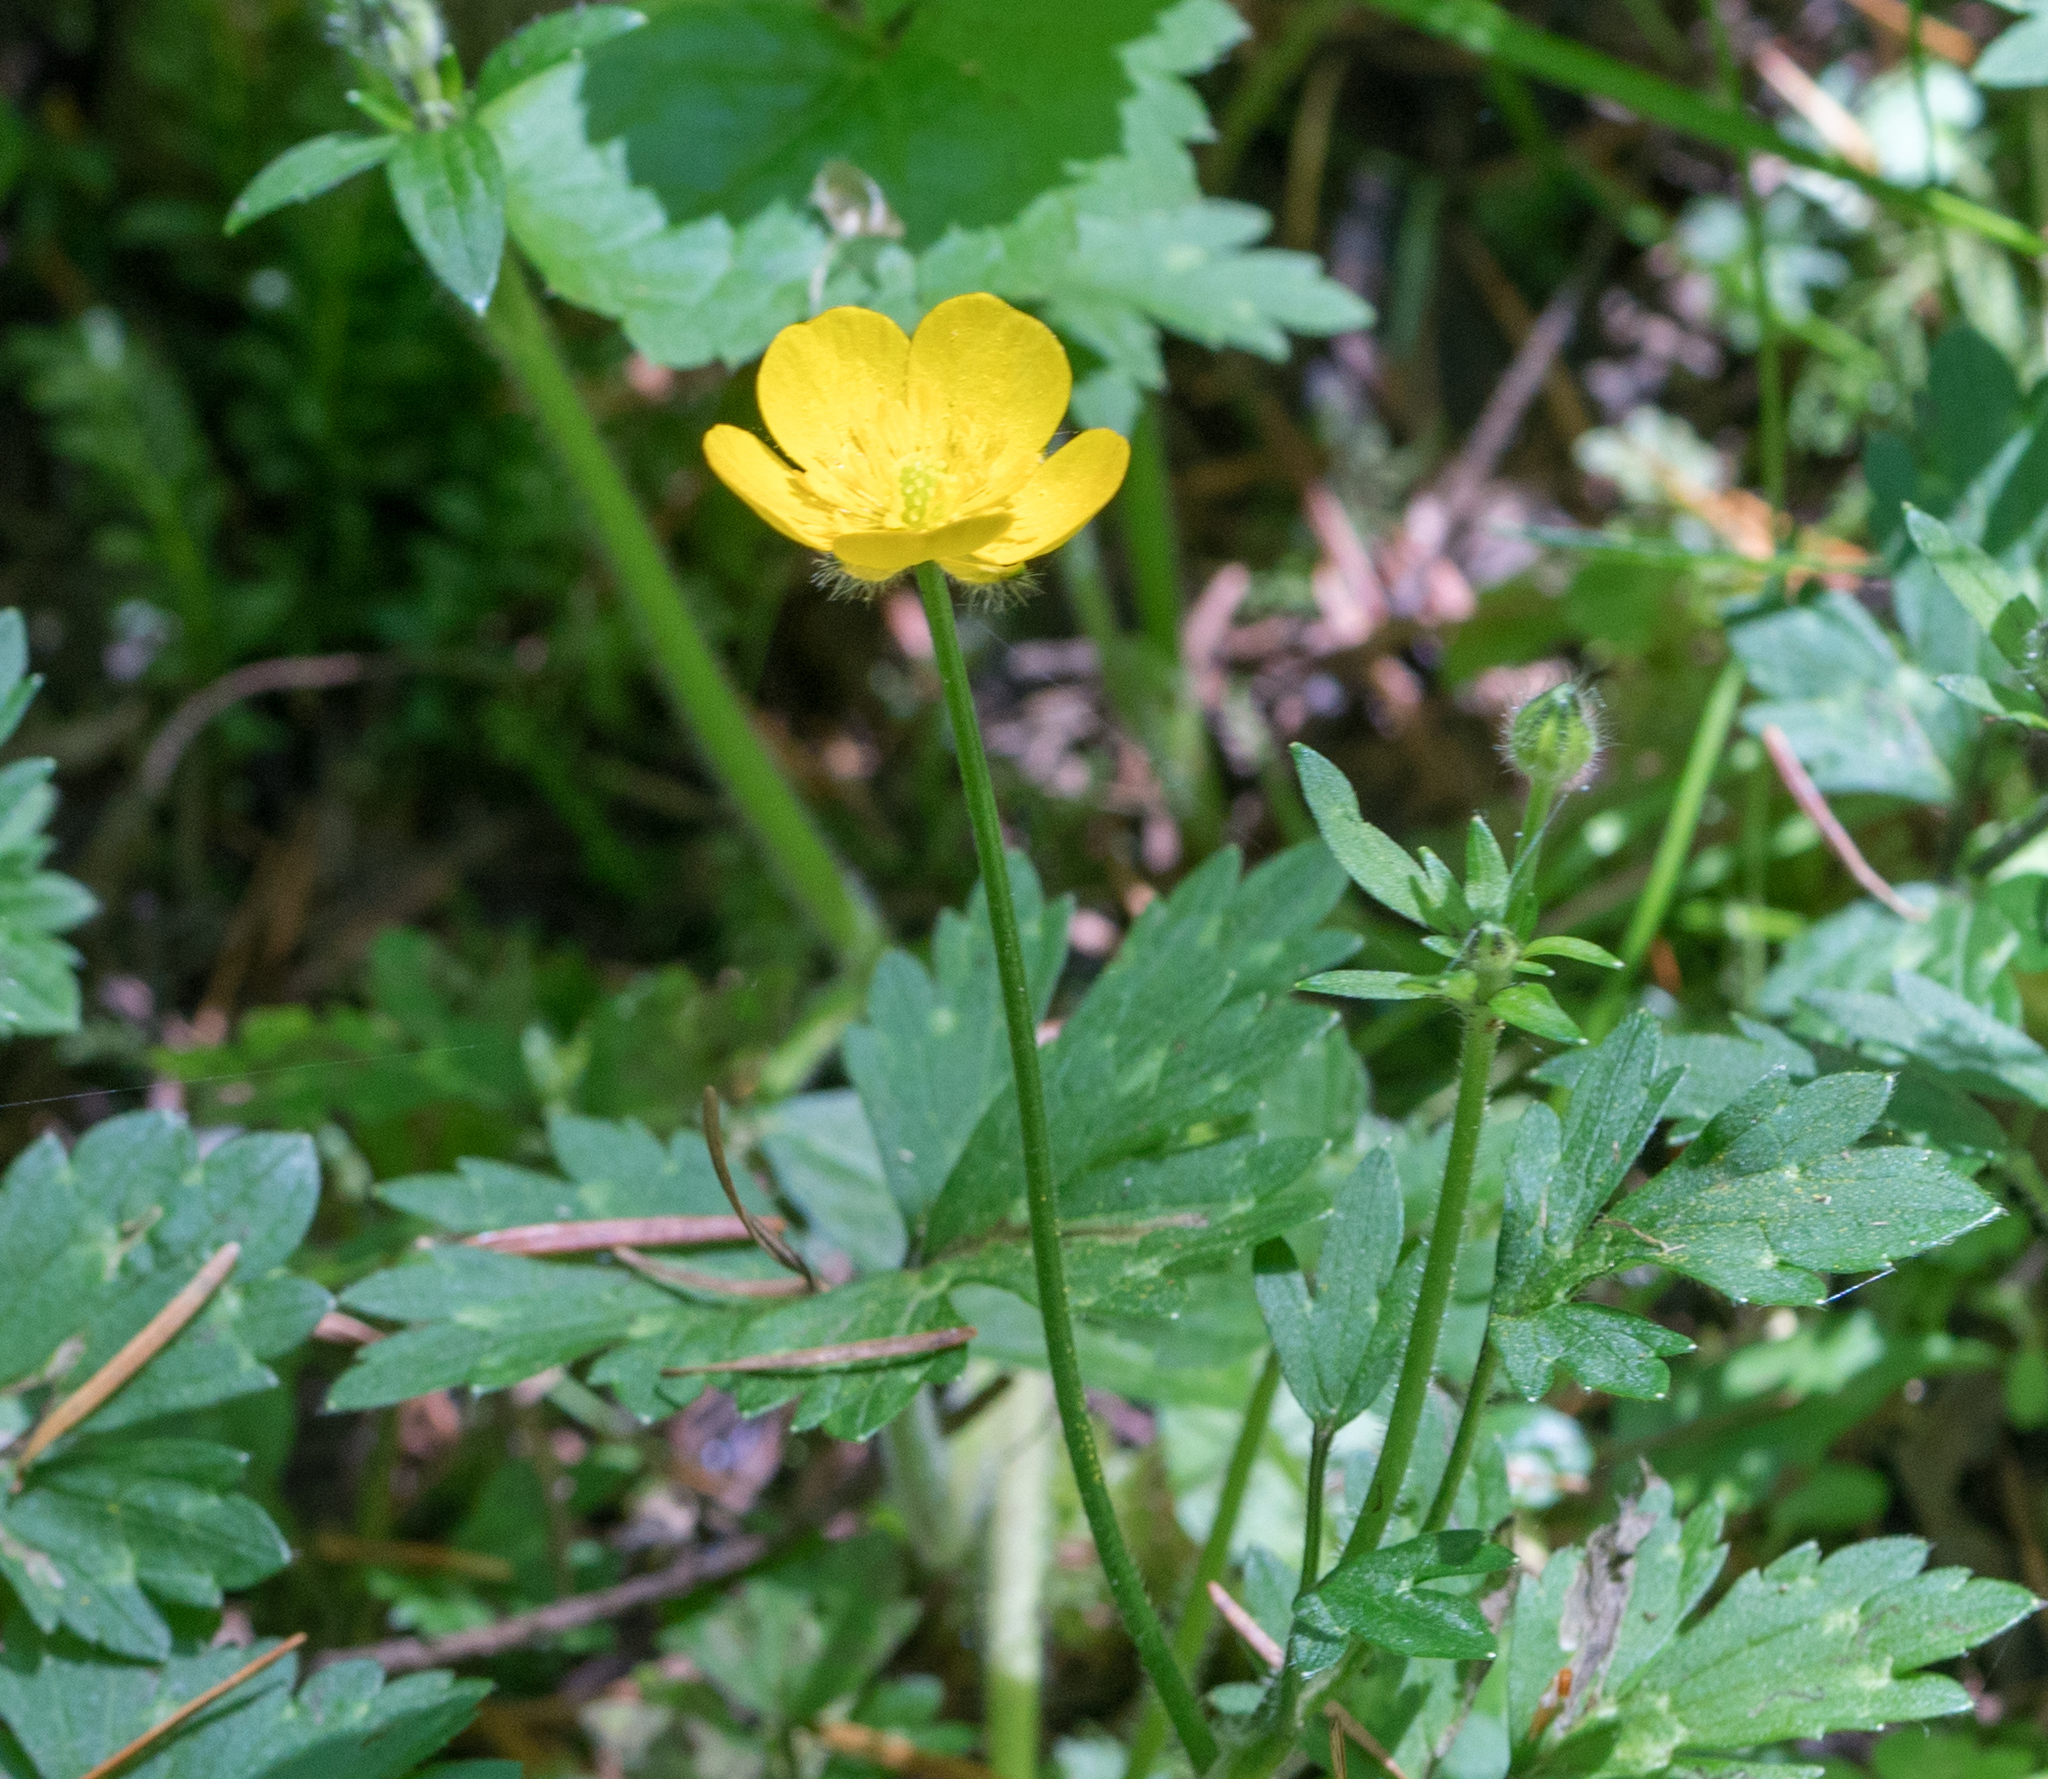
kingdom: Plantae
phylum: Tracheophyta
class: Magnoliopsida
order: Ranunculales
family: Ranunculaceae
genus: Ranunculus
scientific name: Ranunculus repens
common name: Creeping buttercup
